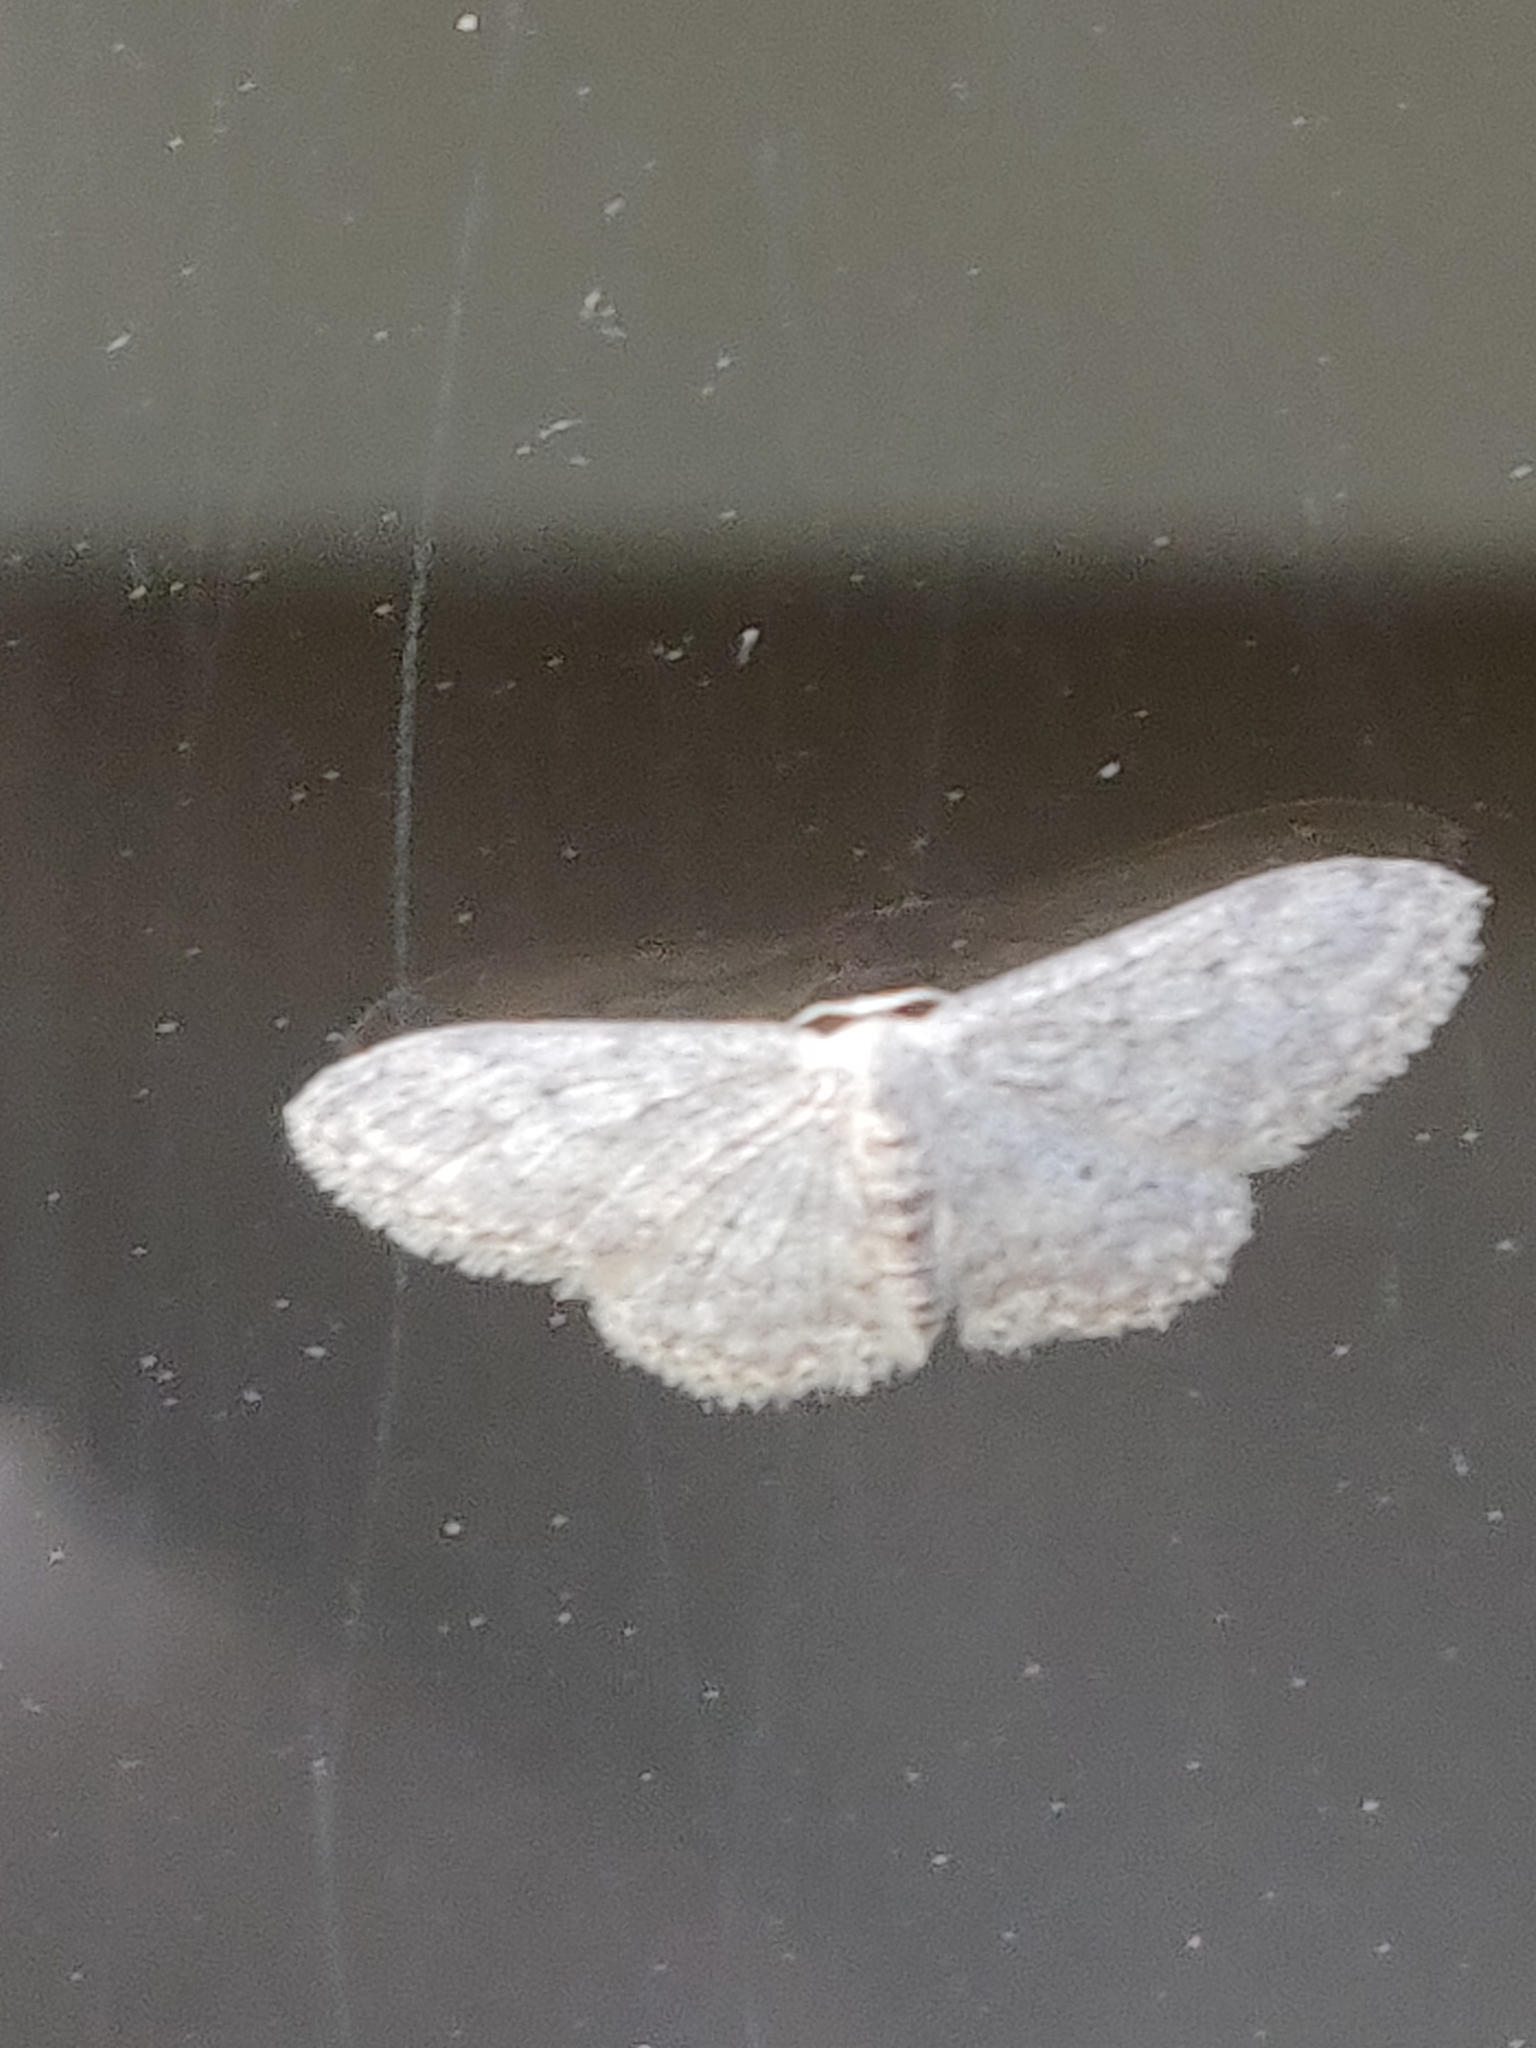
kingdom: Animalia
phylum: Arthropoda
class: Insecta
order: Lepidoptera
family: Geometridae
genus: Idaea
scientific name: Idaea seriata
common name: Small dusty wave
